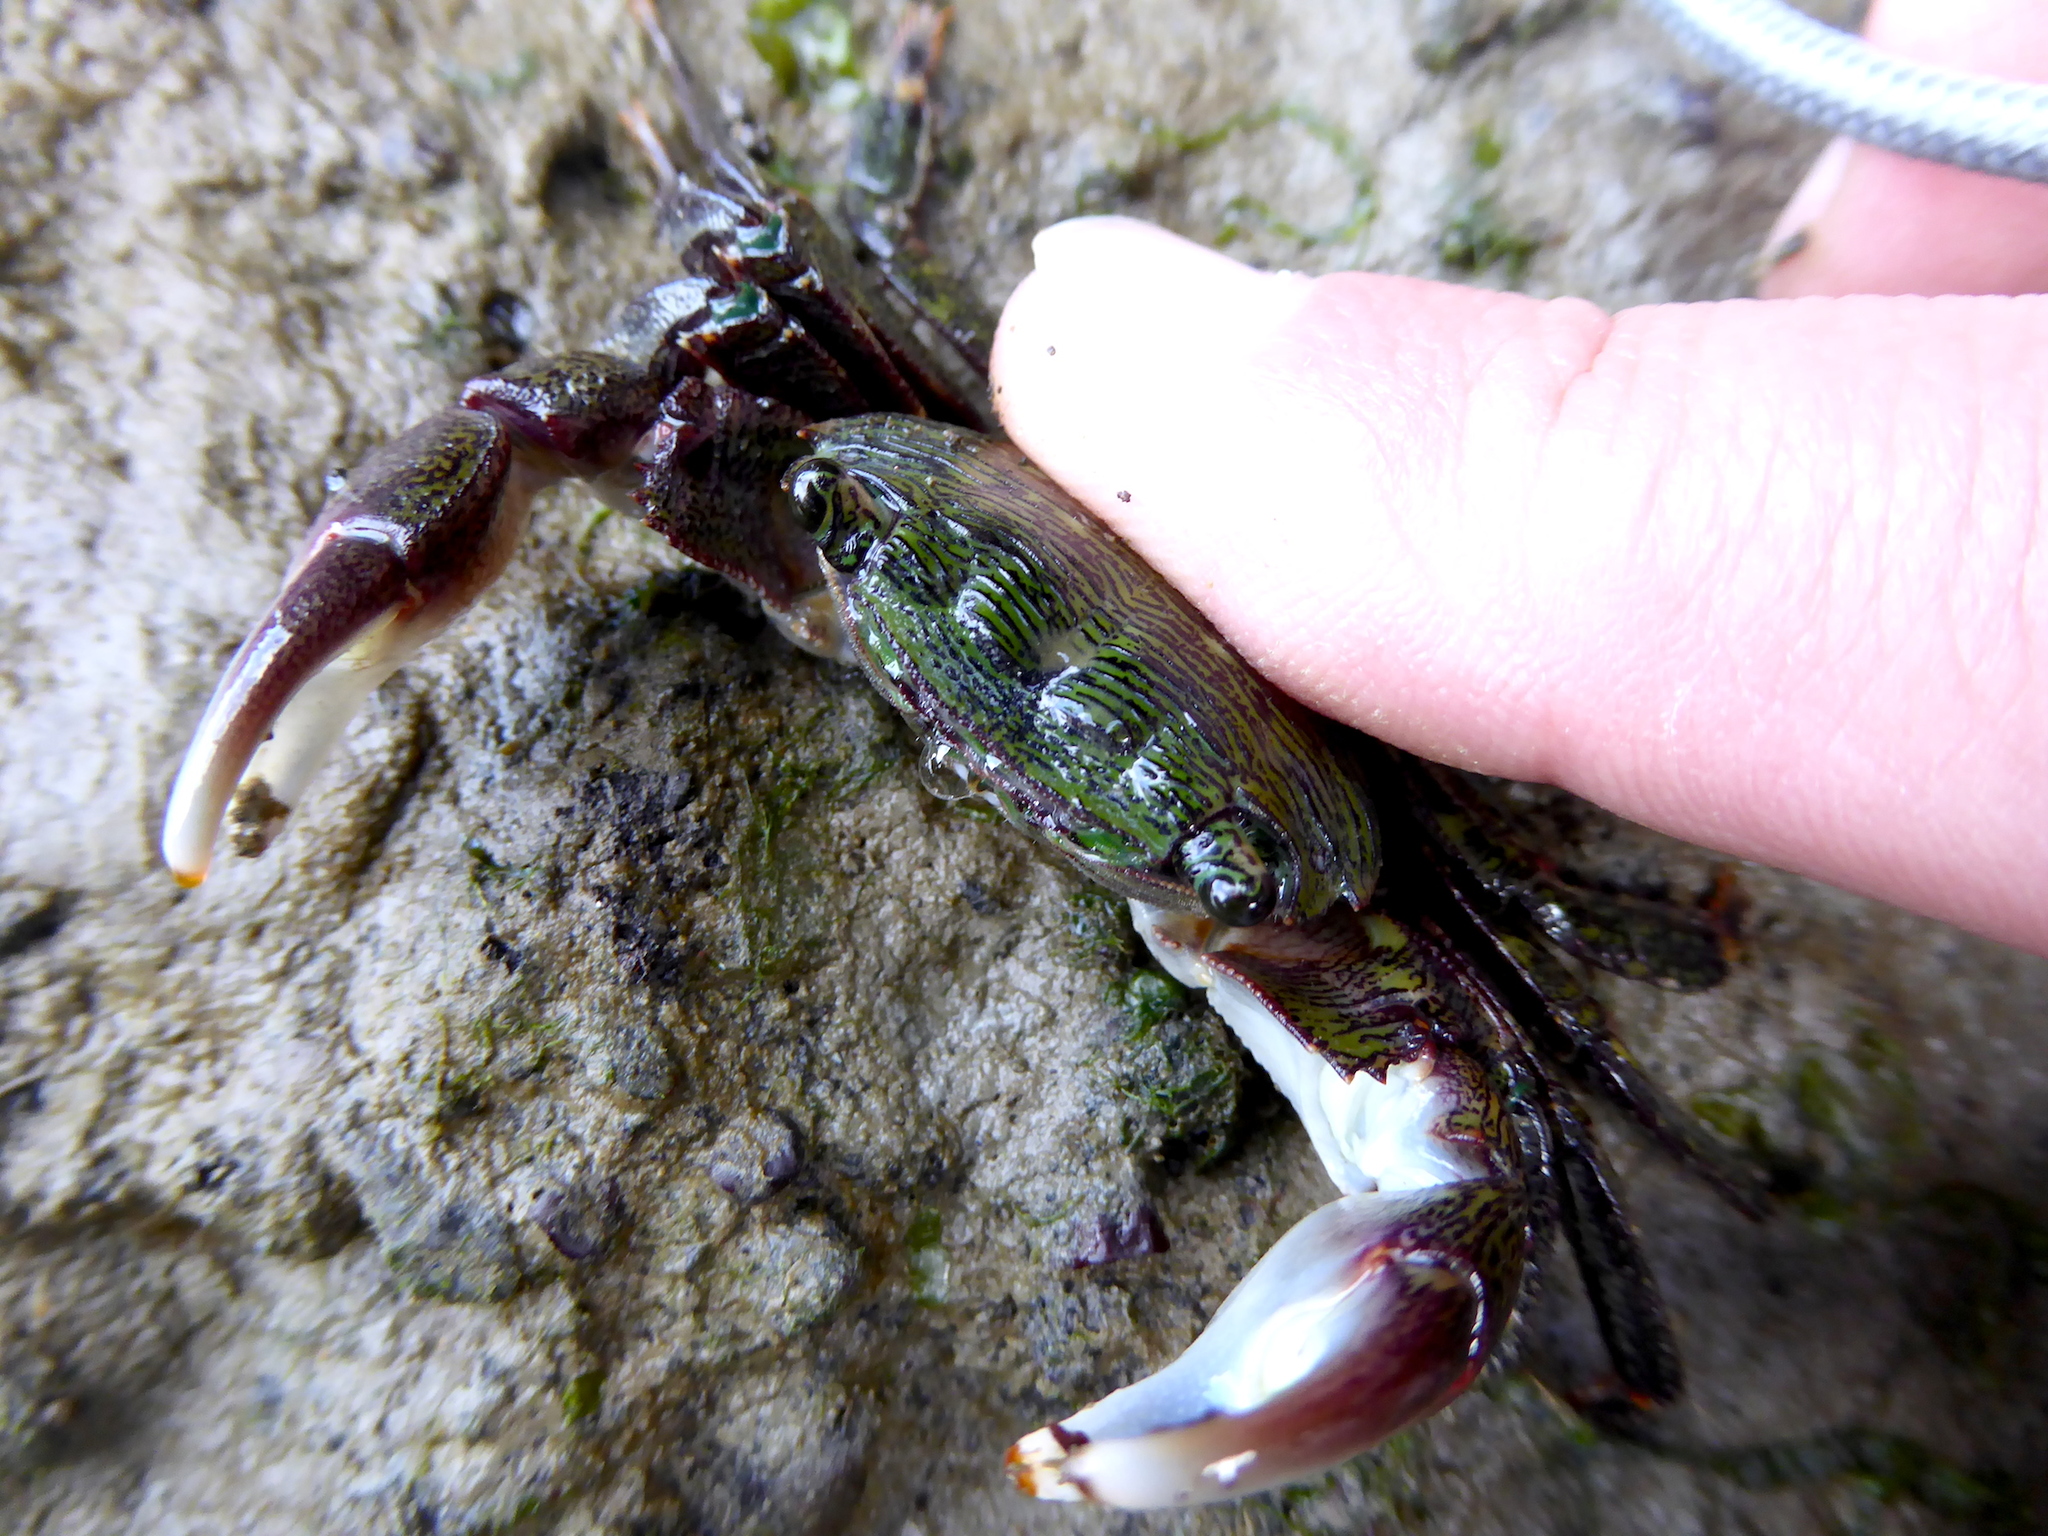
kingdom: Animalia
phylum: Arthropoda
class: Malacostraca
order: Decapoda
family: Grapsidae
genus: Pachygrapsus
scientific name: Pachygrapsus crassipes
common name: Striped shore crab
